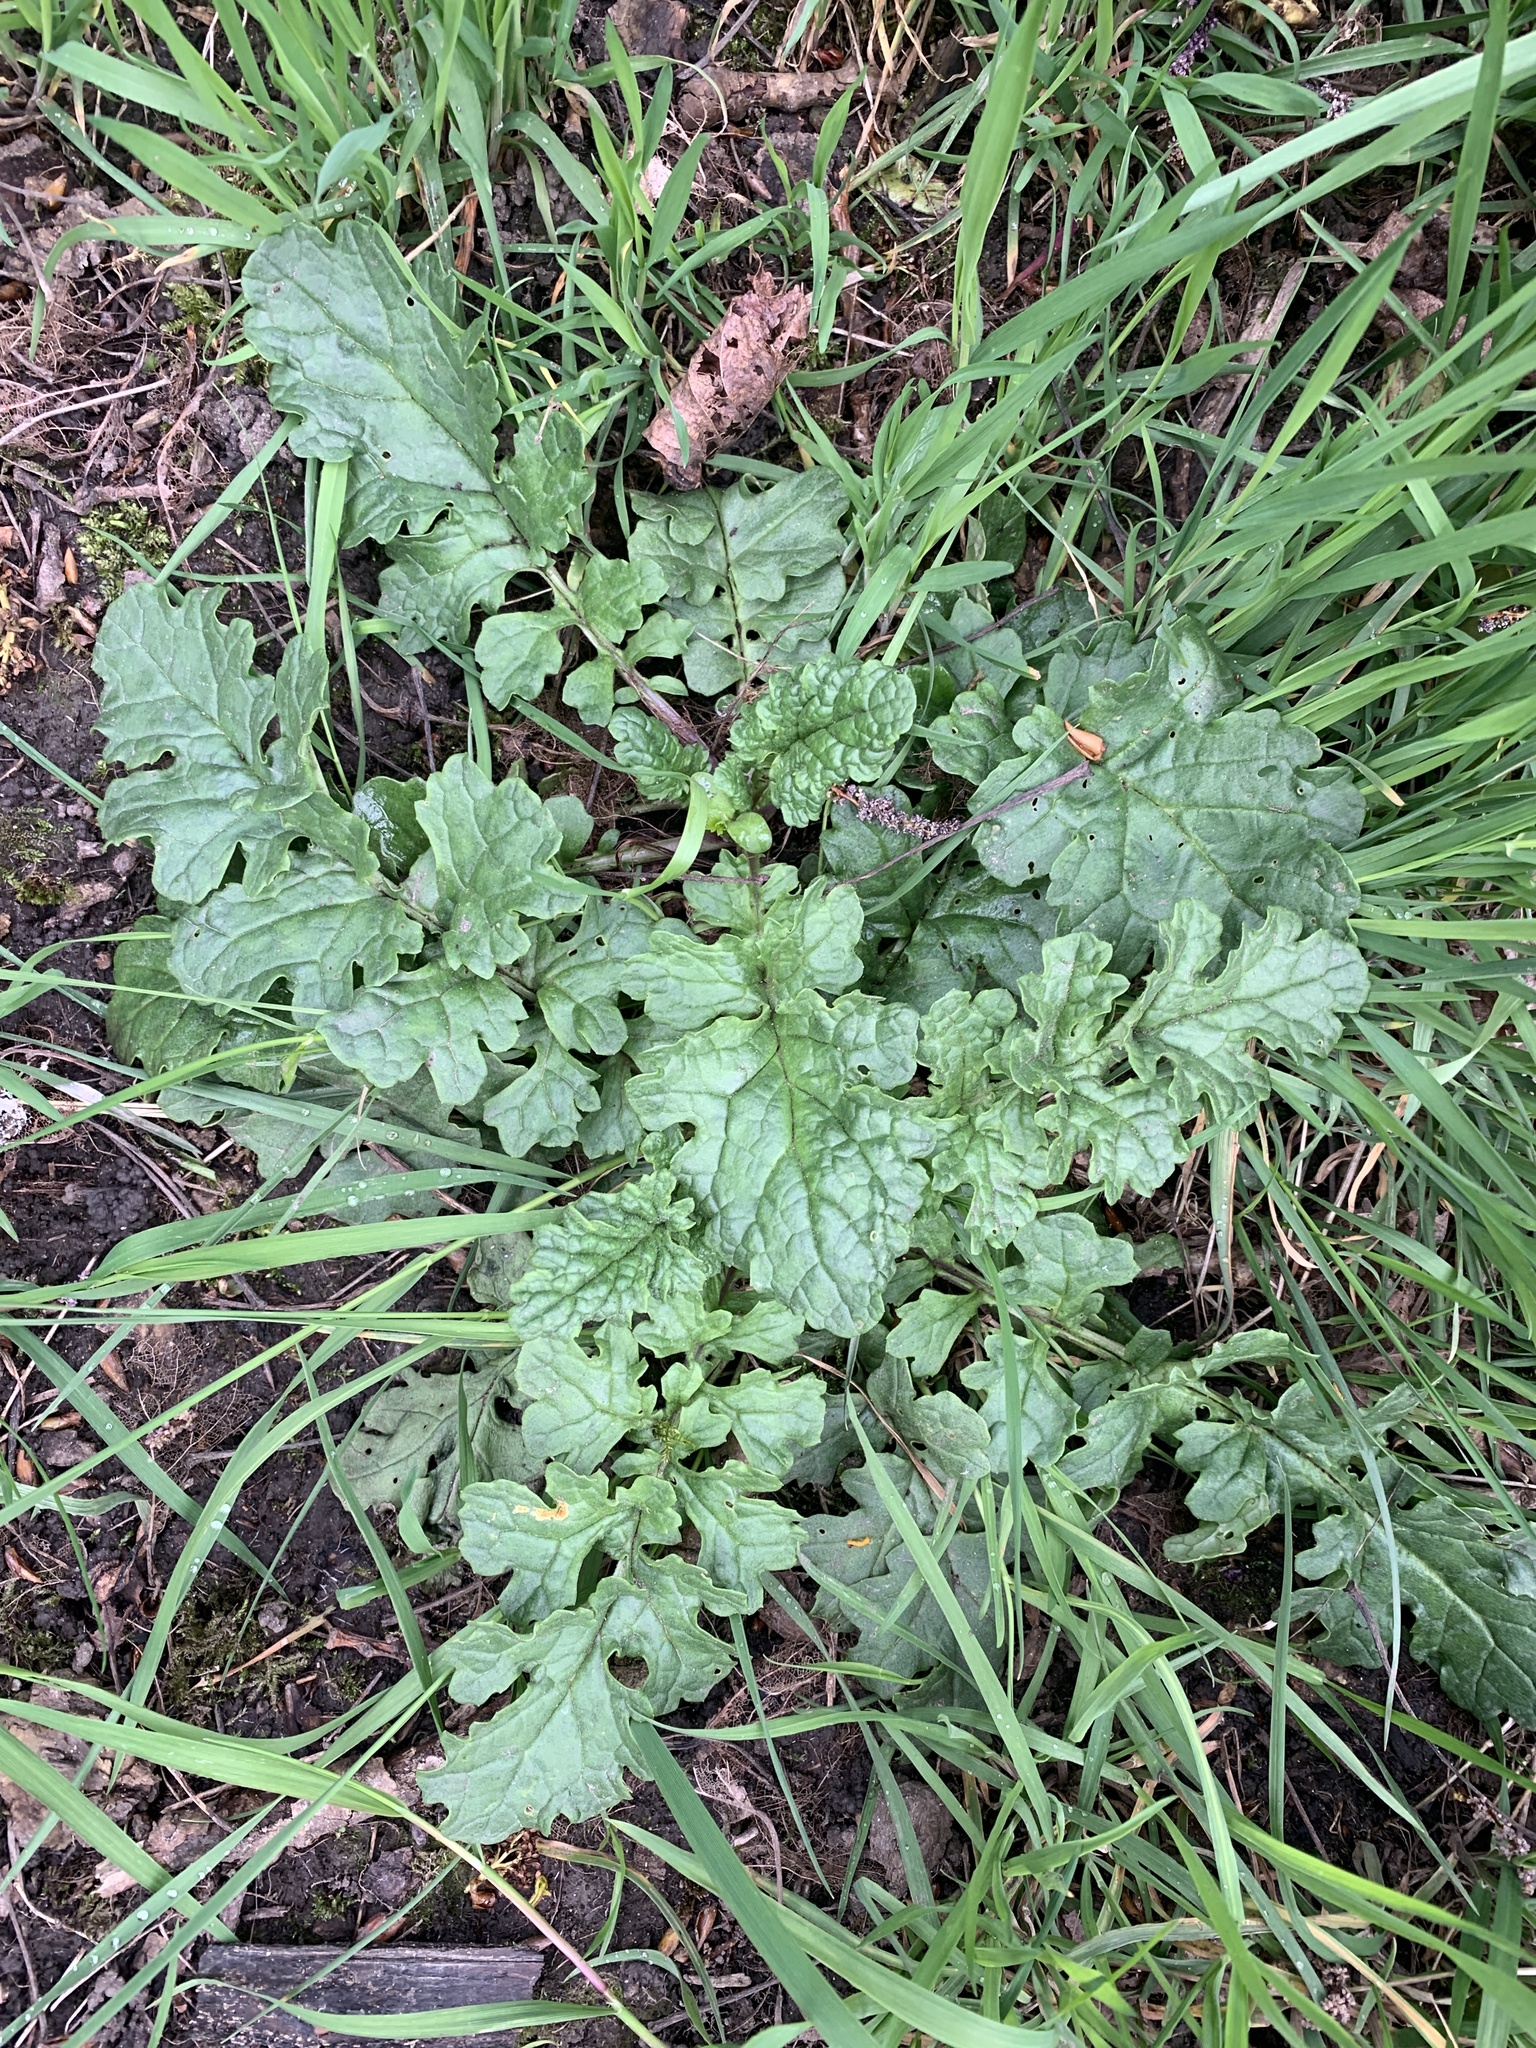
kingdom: Plantae
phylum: Tracheophyta
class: Magnoliopsida
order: Asterales
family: Asteraceae
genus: Jacobaea
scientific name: Jacobaea vulgaris
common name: Stinking willie
